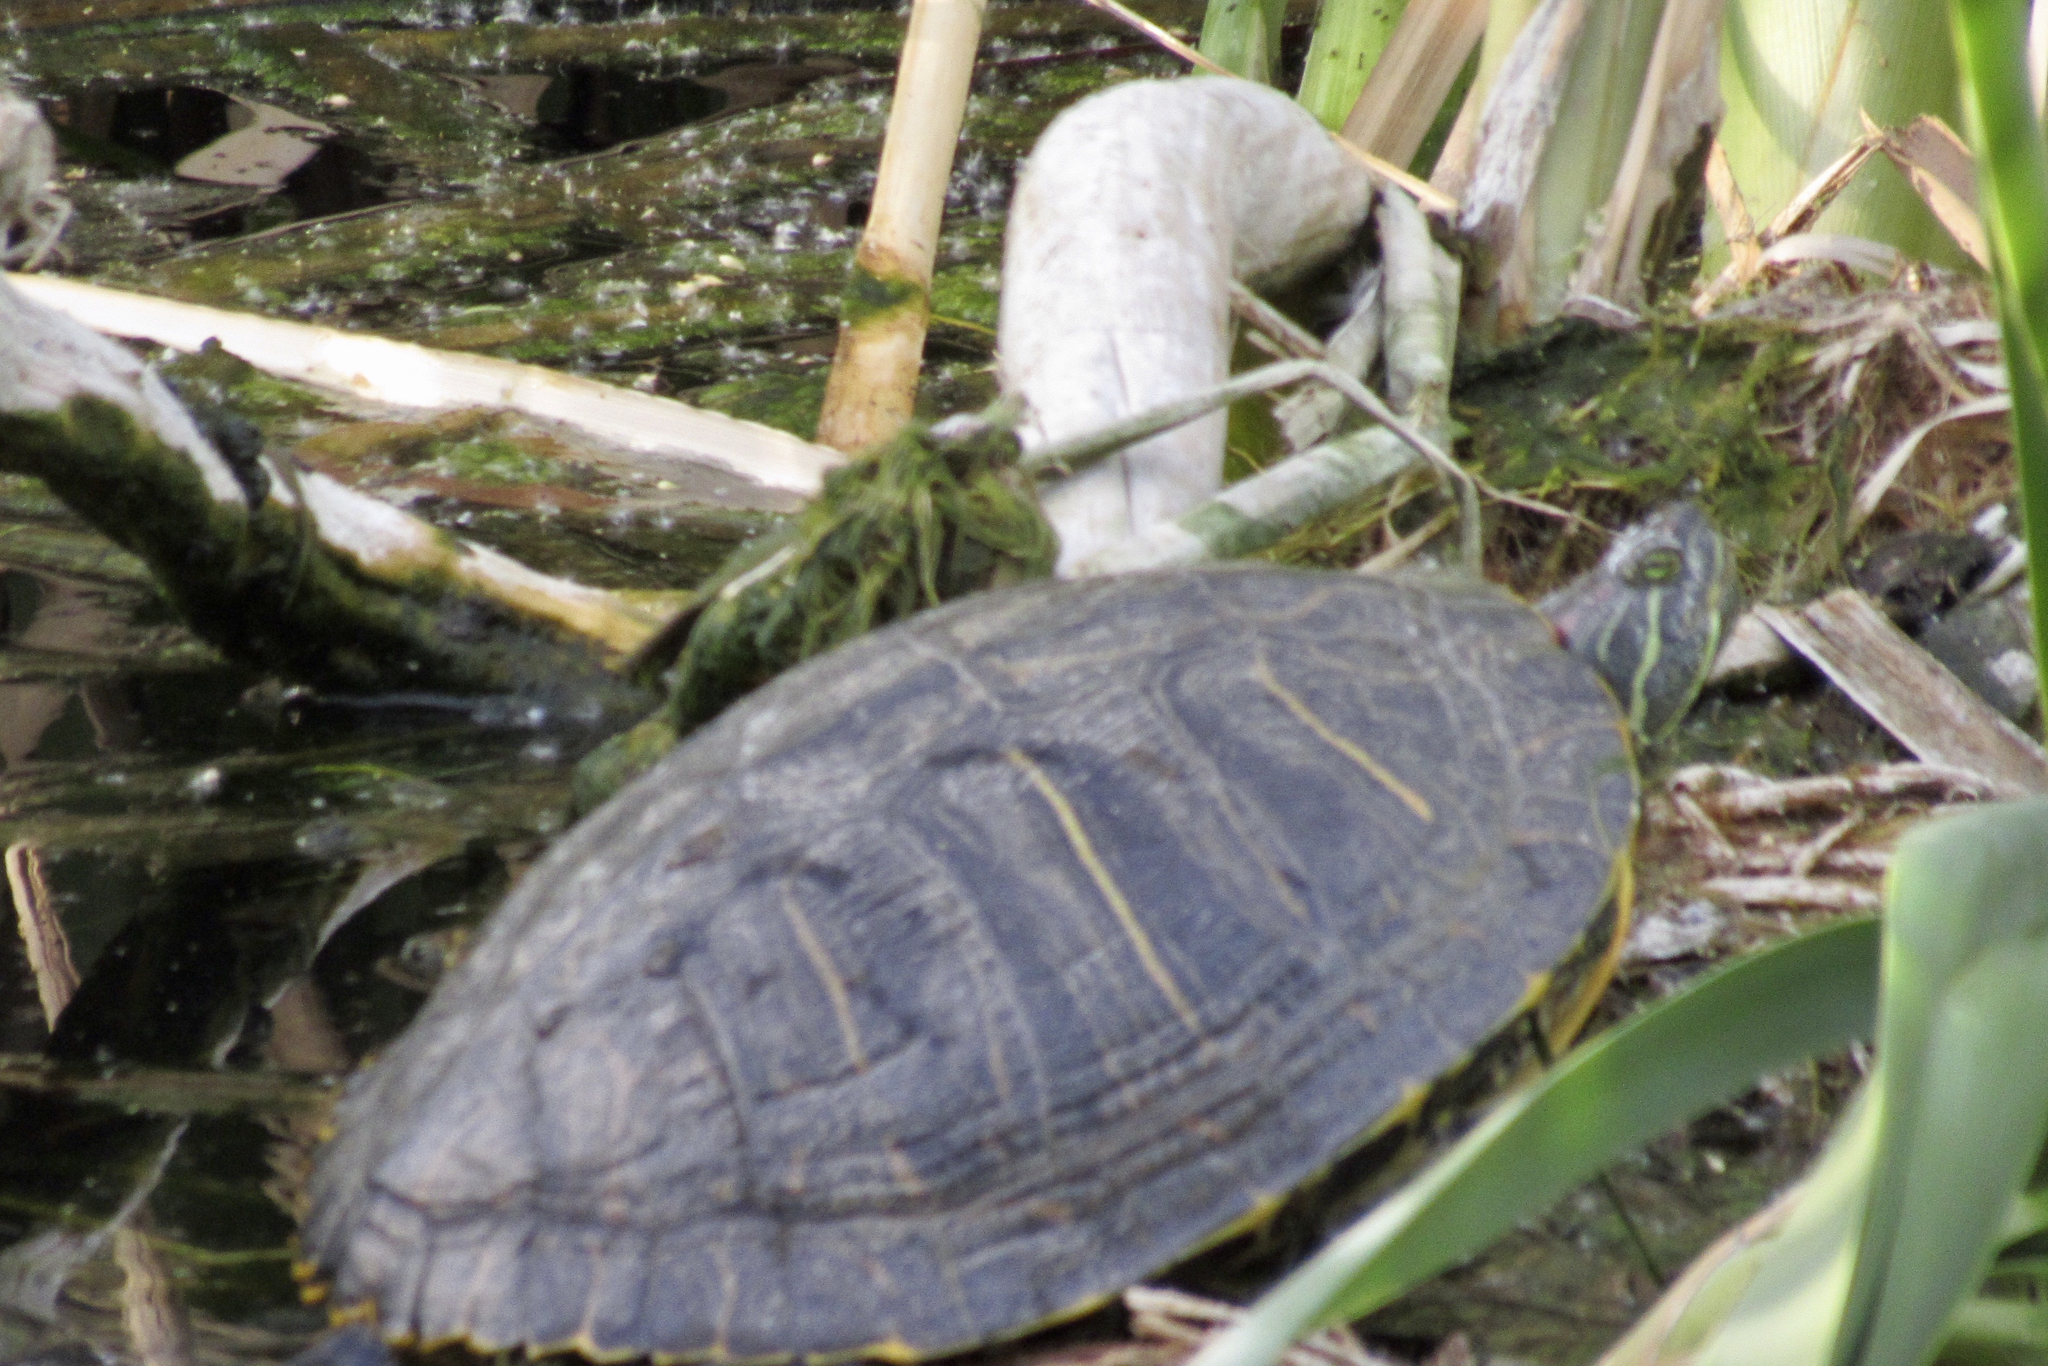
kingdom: Animalia
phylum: Chordata
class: Testudines
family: Emydidae
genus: Trachemys
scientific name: Trachemys scripta
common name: Slider
